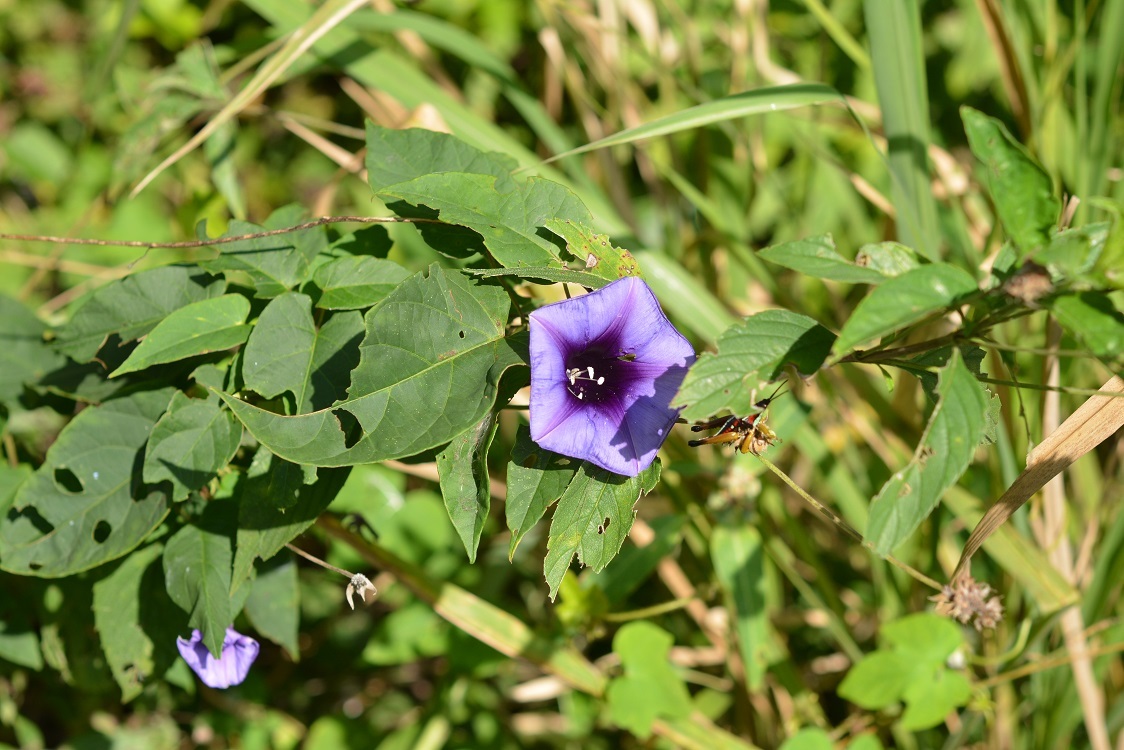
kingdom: Plantae
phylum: Tracheophyta
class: Magnoliopsida
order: Solanales
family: Convolvulaceae
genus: Ipomoea
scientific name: Ipomoea lindenii
